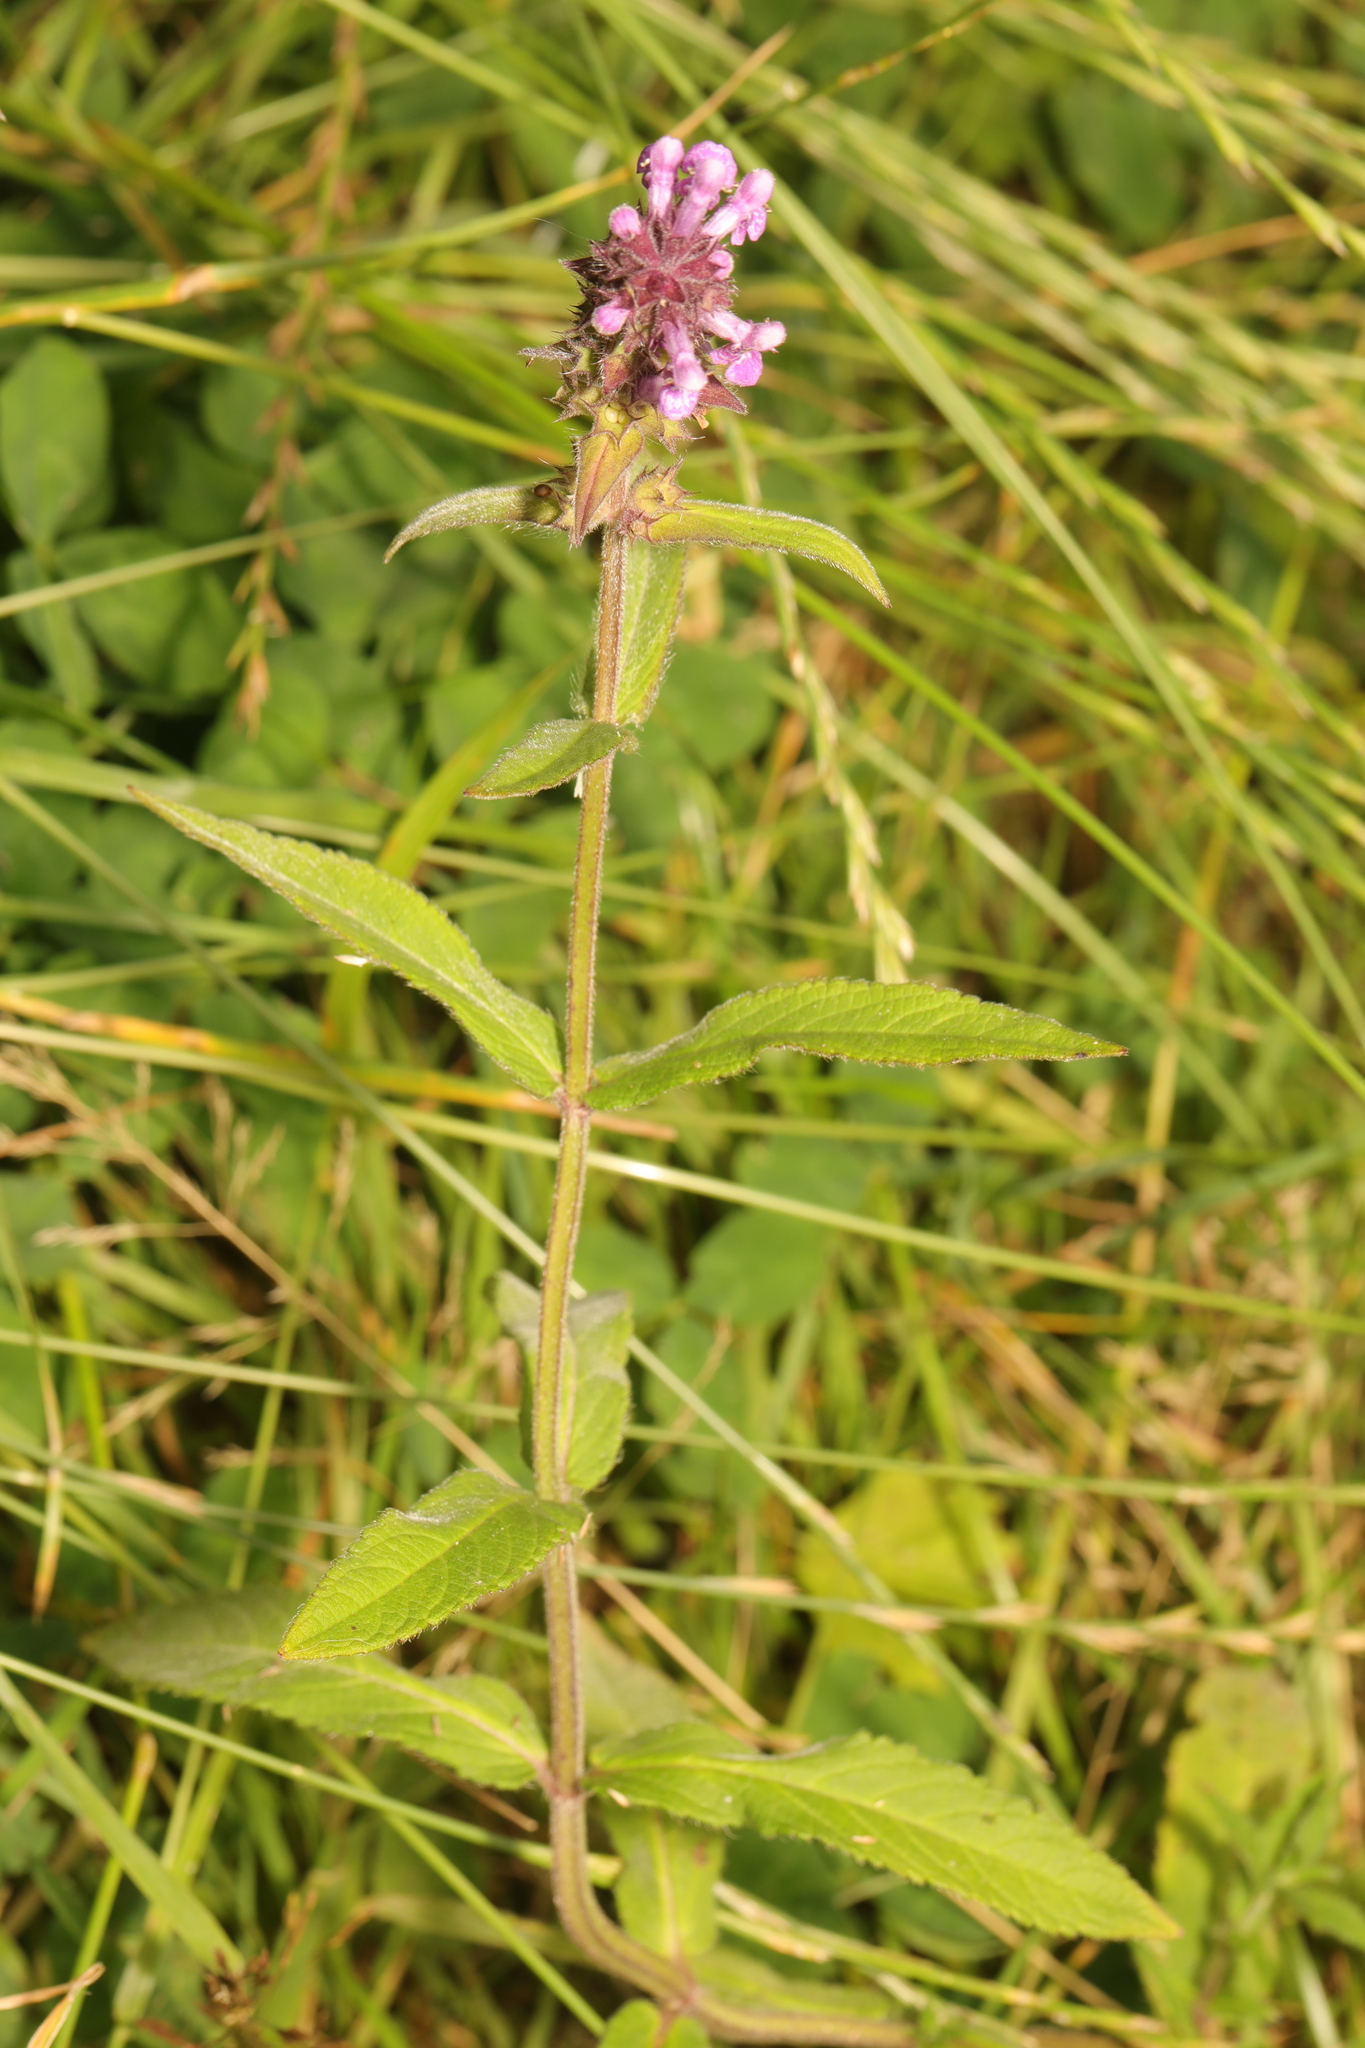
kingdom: Plantae
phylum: Tracheophyta
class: Magnoliopsida
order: Lamiales
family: Lamiaceae
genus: Stachys
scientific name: Stachys palustris
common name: Marsh woundwort
